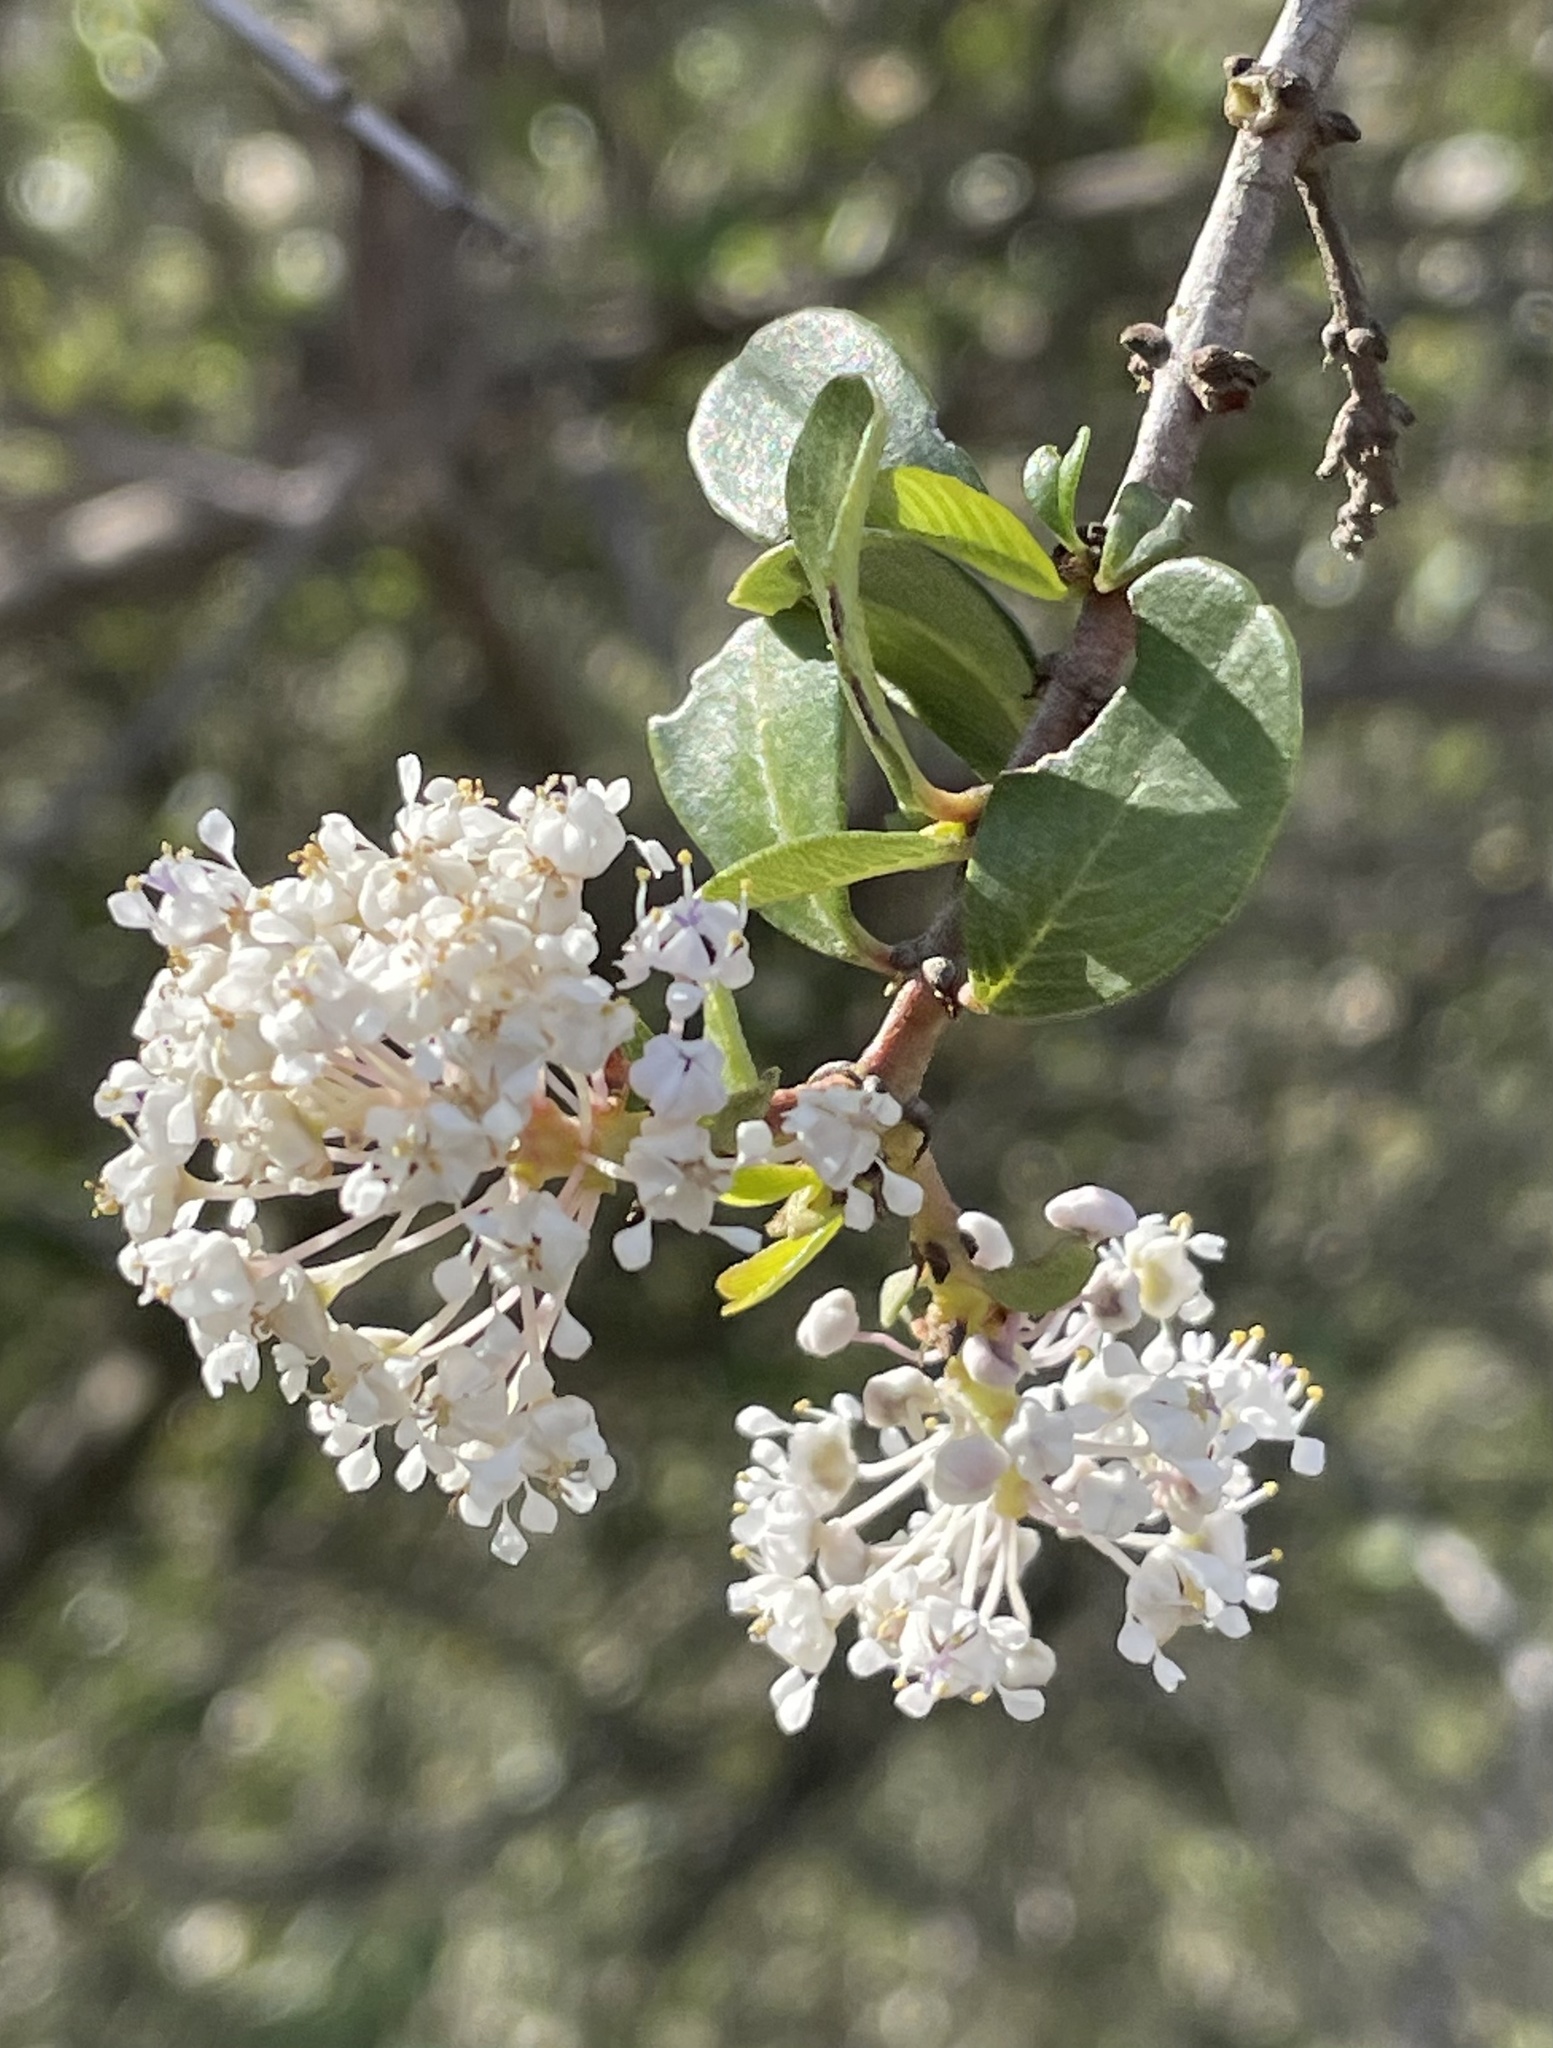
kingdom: Plantae
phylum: Tracheophyta
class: Magnoliopsida
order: Rosales
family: Rhamnaceae
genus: Ceanothus
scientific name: Ceanothus cuneatus
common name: Cuneate ceanothus
